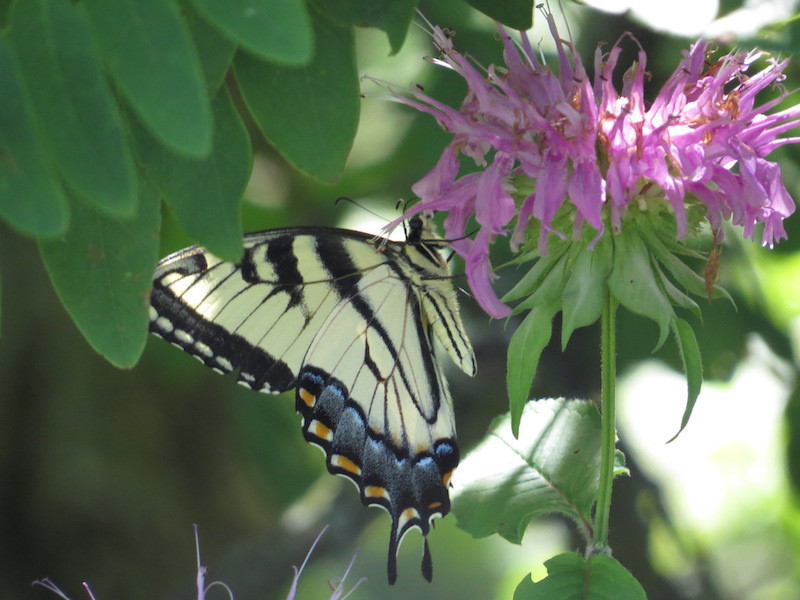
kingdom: Animalia
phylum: Arthropoda
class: Insecta
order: Lepidoptera
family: Papilionidae
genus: Papilio
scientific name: Papilio glaucus
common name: Tiger swallowtail
